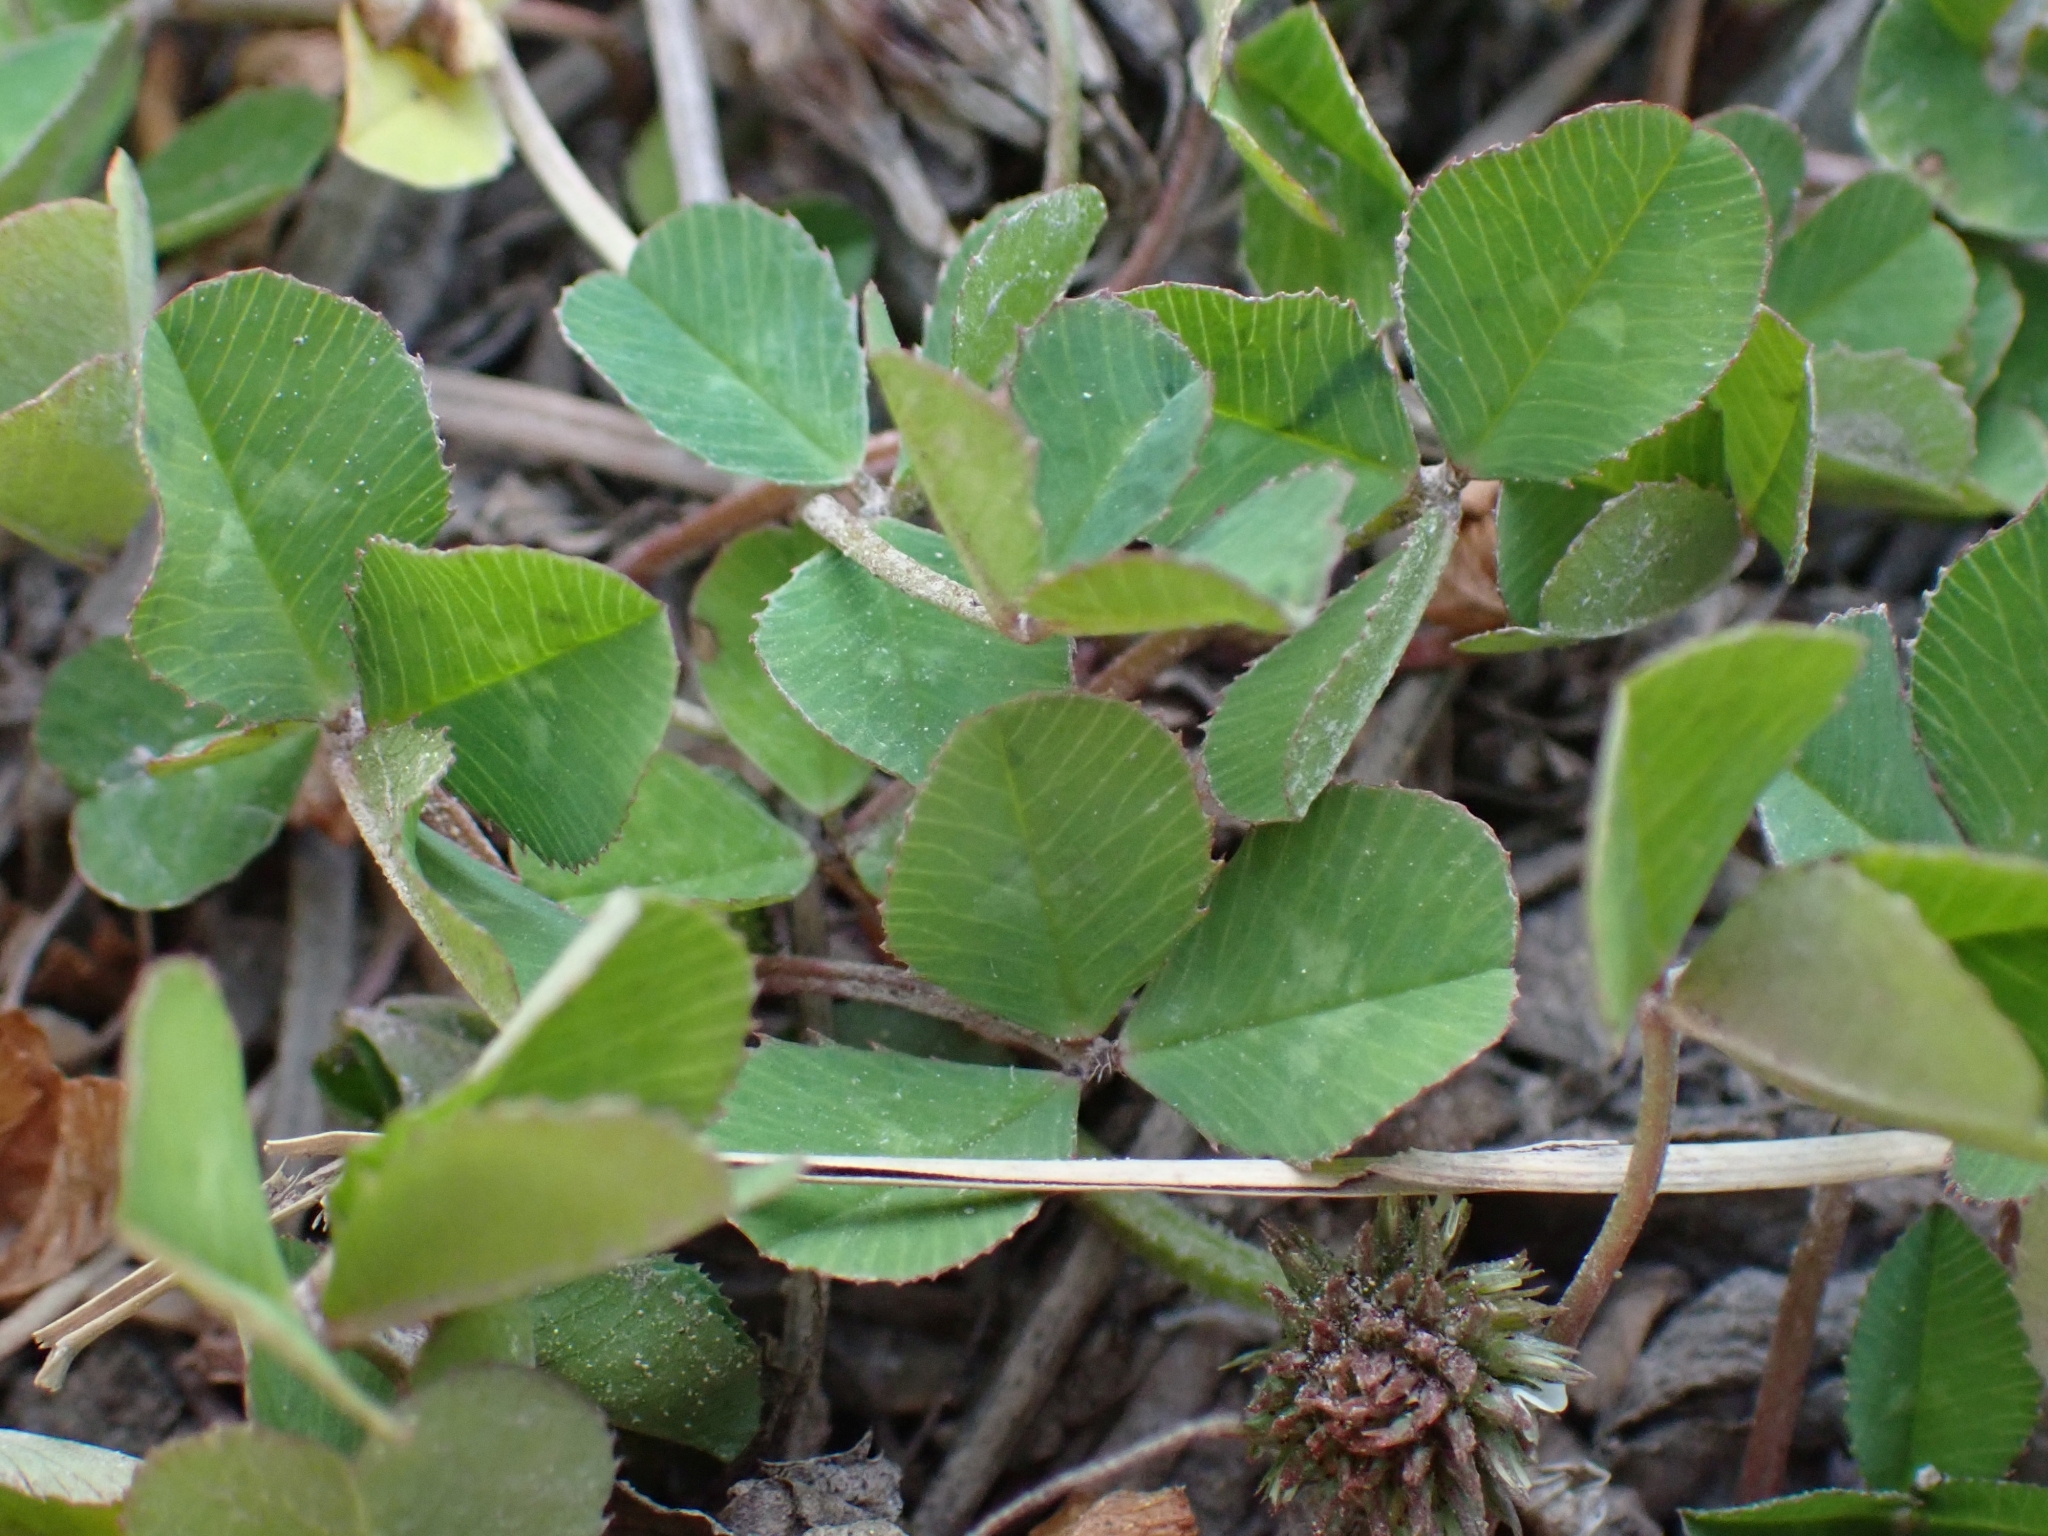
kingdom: Plantae
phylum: Tracheophyta
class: Magnoliopsida
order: Fabales
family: Fabaceae
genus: Trifolium
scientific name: Trifolium repens
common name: White clover
